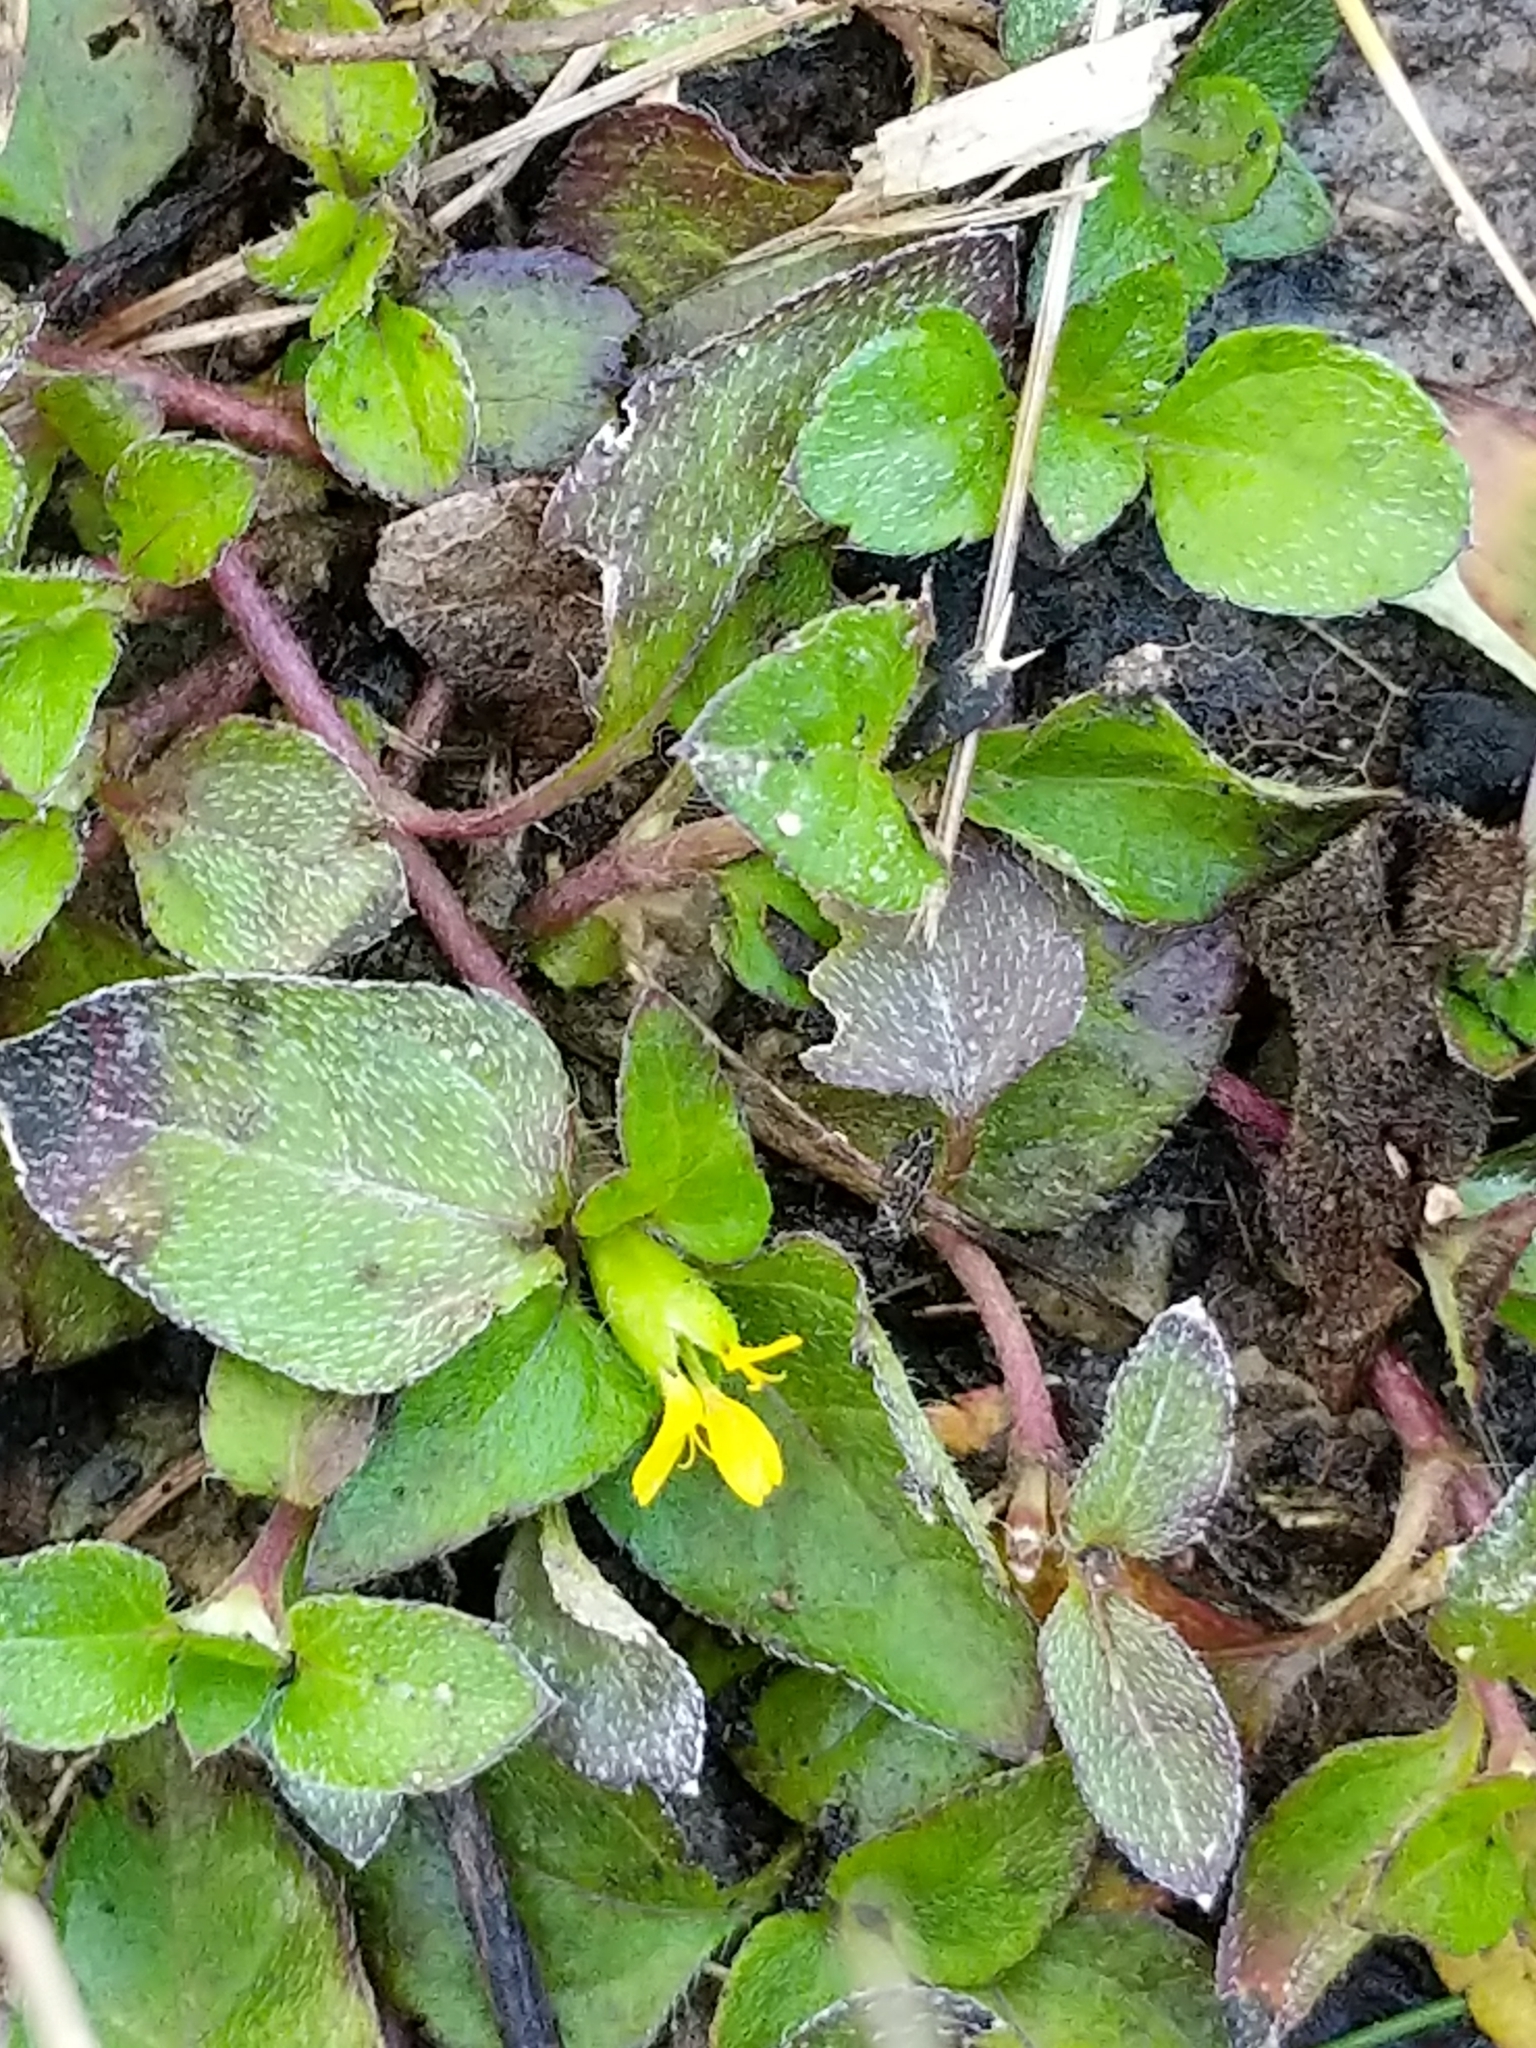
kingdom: Plantae
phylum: Tracheophyta
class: Magnoliopsida
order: Asterales
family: Asteraceae
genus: Calyptocarpus
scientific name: Calyptocarpus vialis
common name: Straggler daisy
